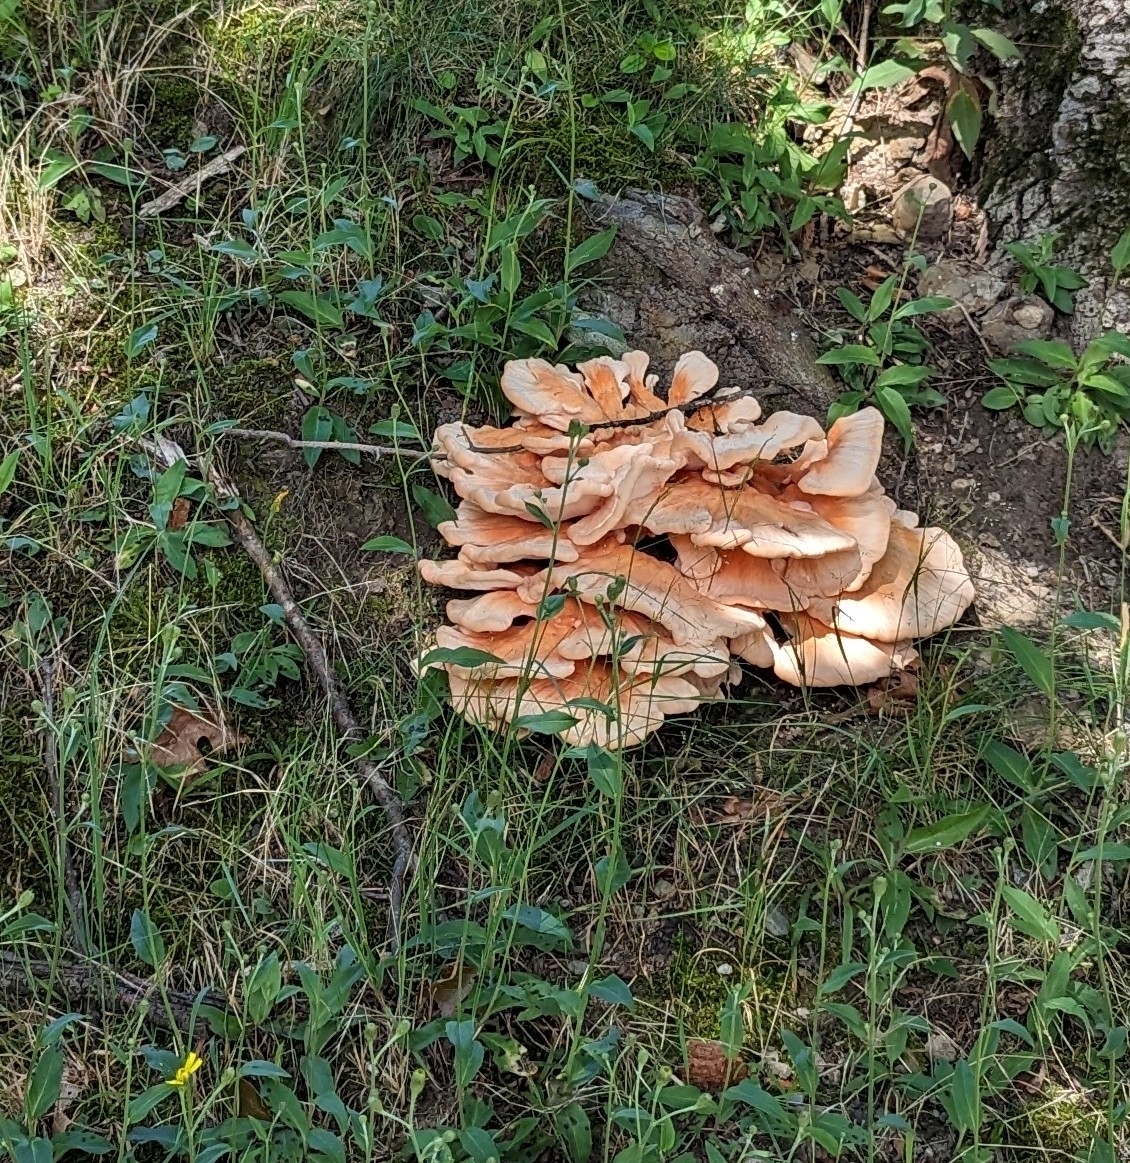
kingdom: Fungi
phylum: Basidiomycota
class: Agaricomycetes
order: Polyporales
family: Laetiporaceae
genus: Laetiporus
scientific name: Laetiporus sulphureus
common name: Chicken of the woods
